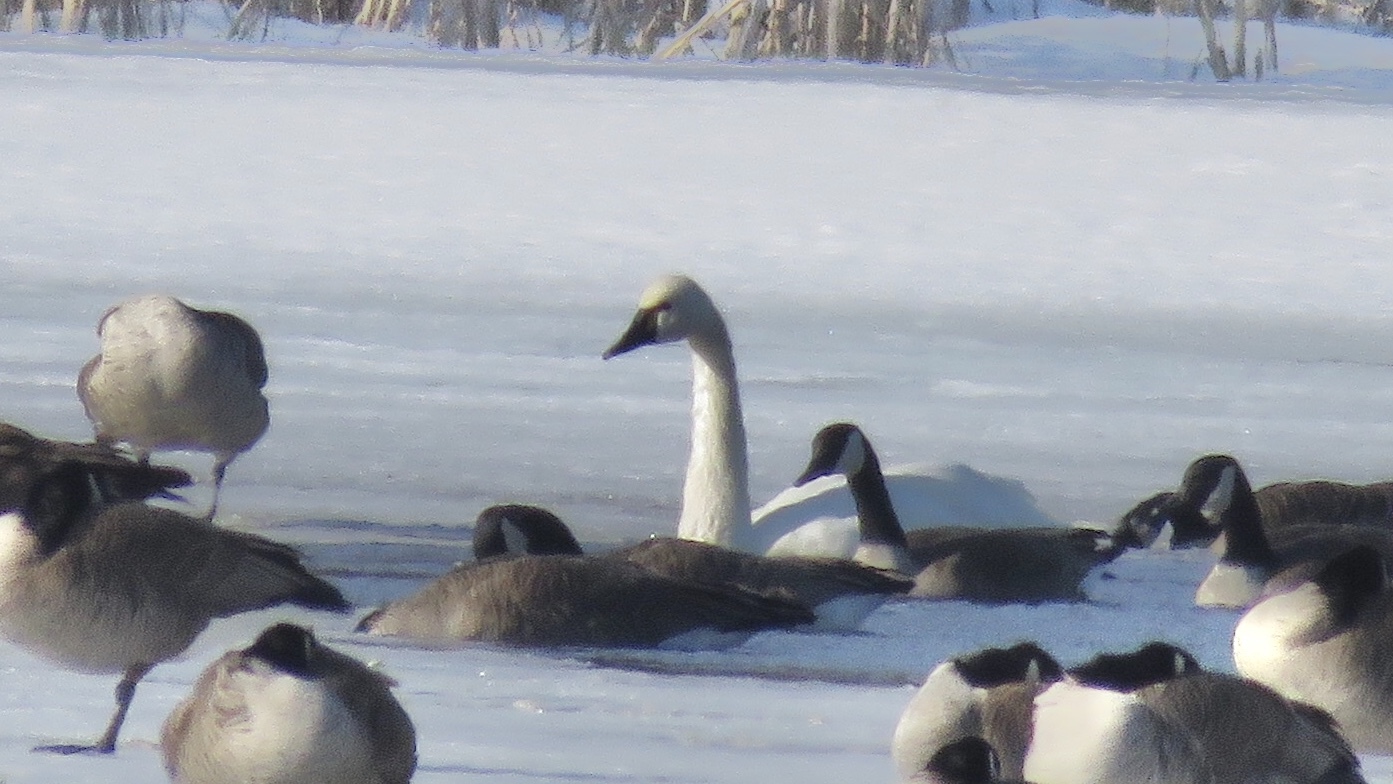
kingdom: Animalia
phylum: Chordata
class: Aves
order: Anseriformes
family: Anatidae
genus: Cygnus
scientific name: Cygnus columbianus
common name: Tundra swan
